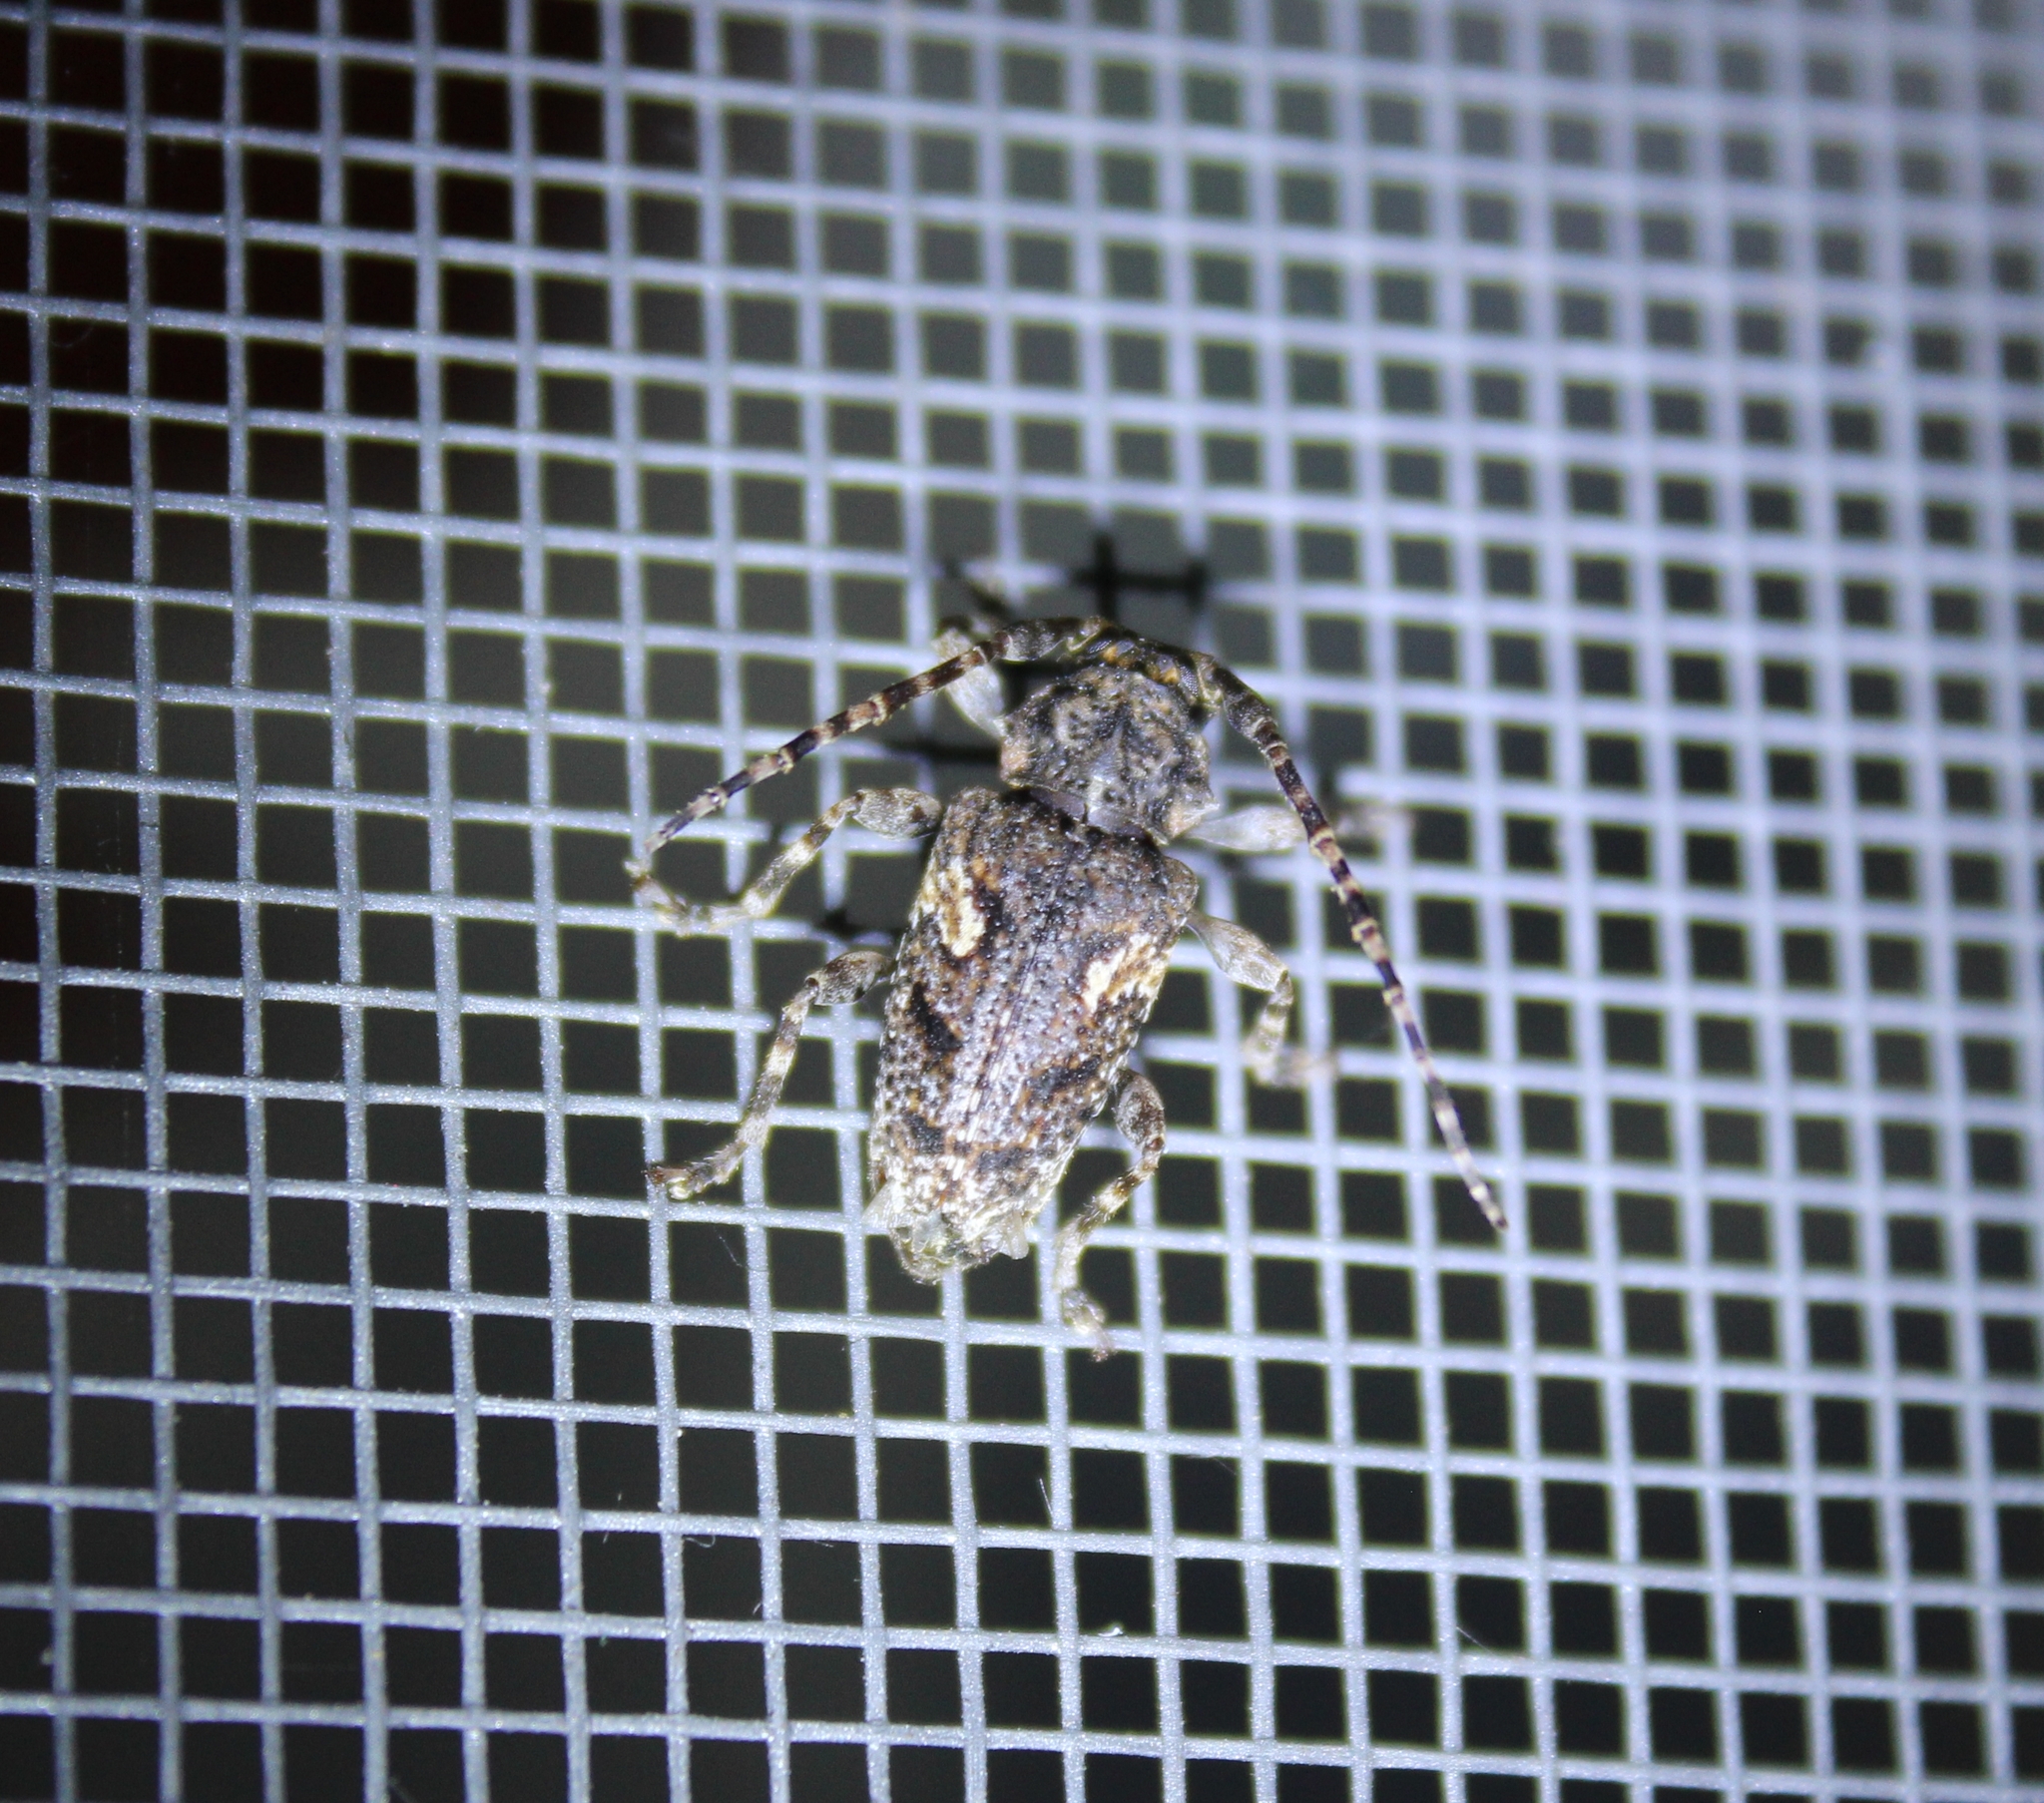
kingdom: Animalia
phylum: Arthropoda
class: Insecta
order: Coleoptera
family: Cerambycidae
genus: Psapharochrus
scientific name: Psapharochrus circumflexus
